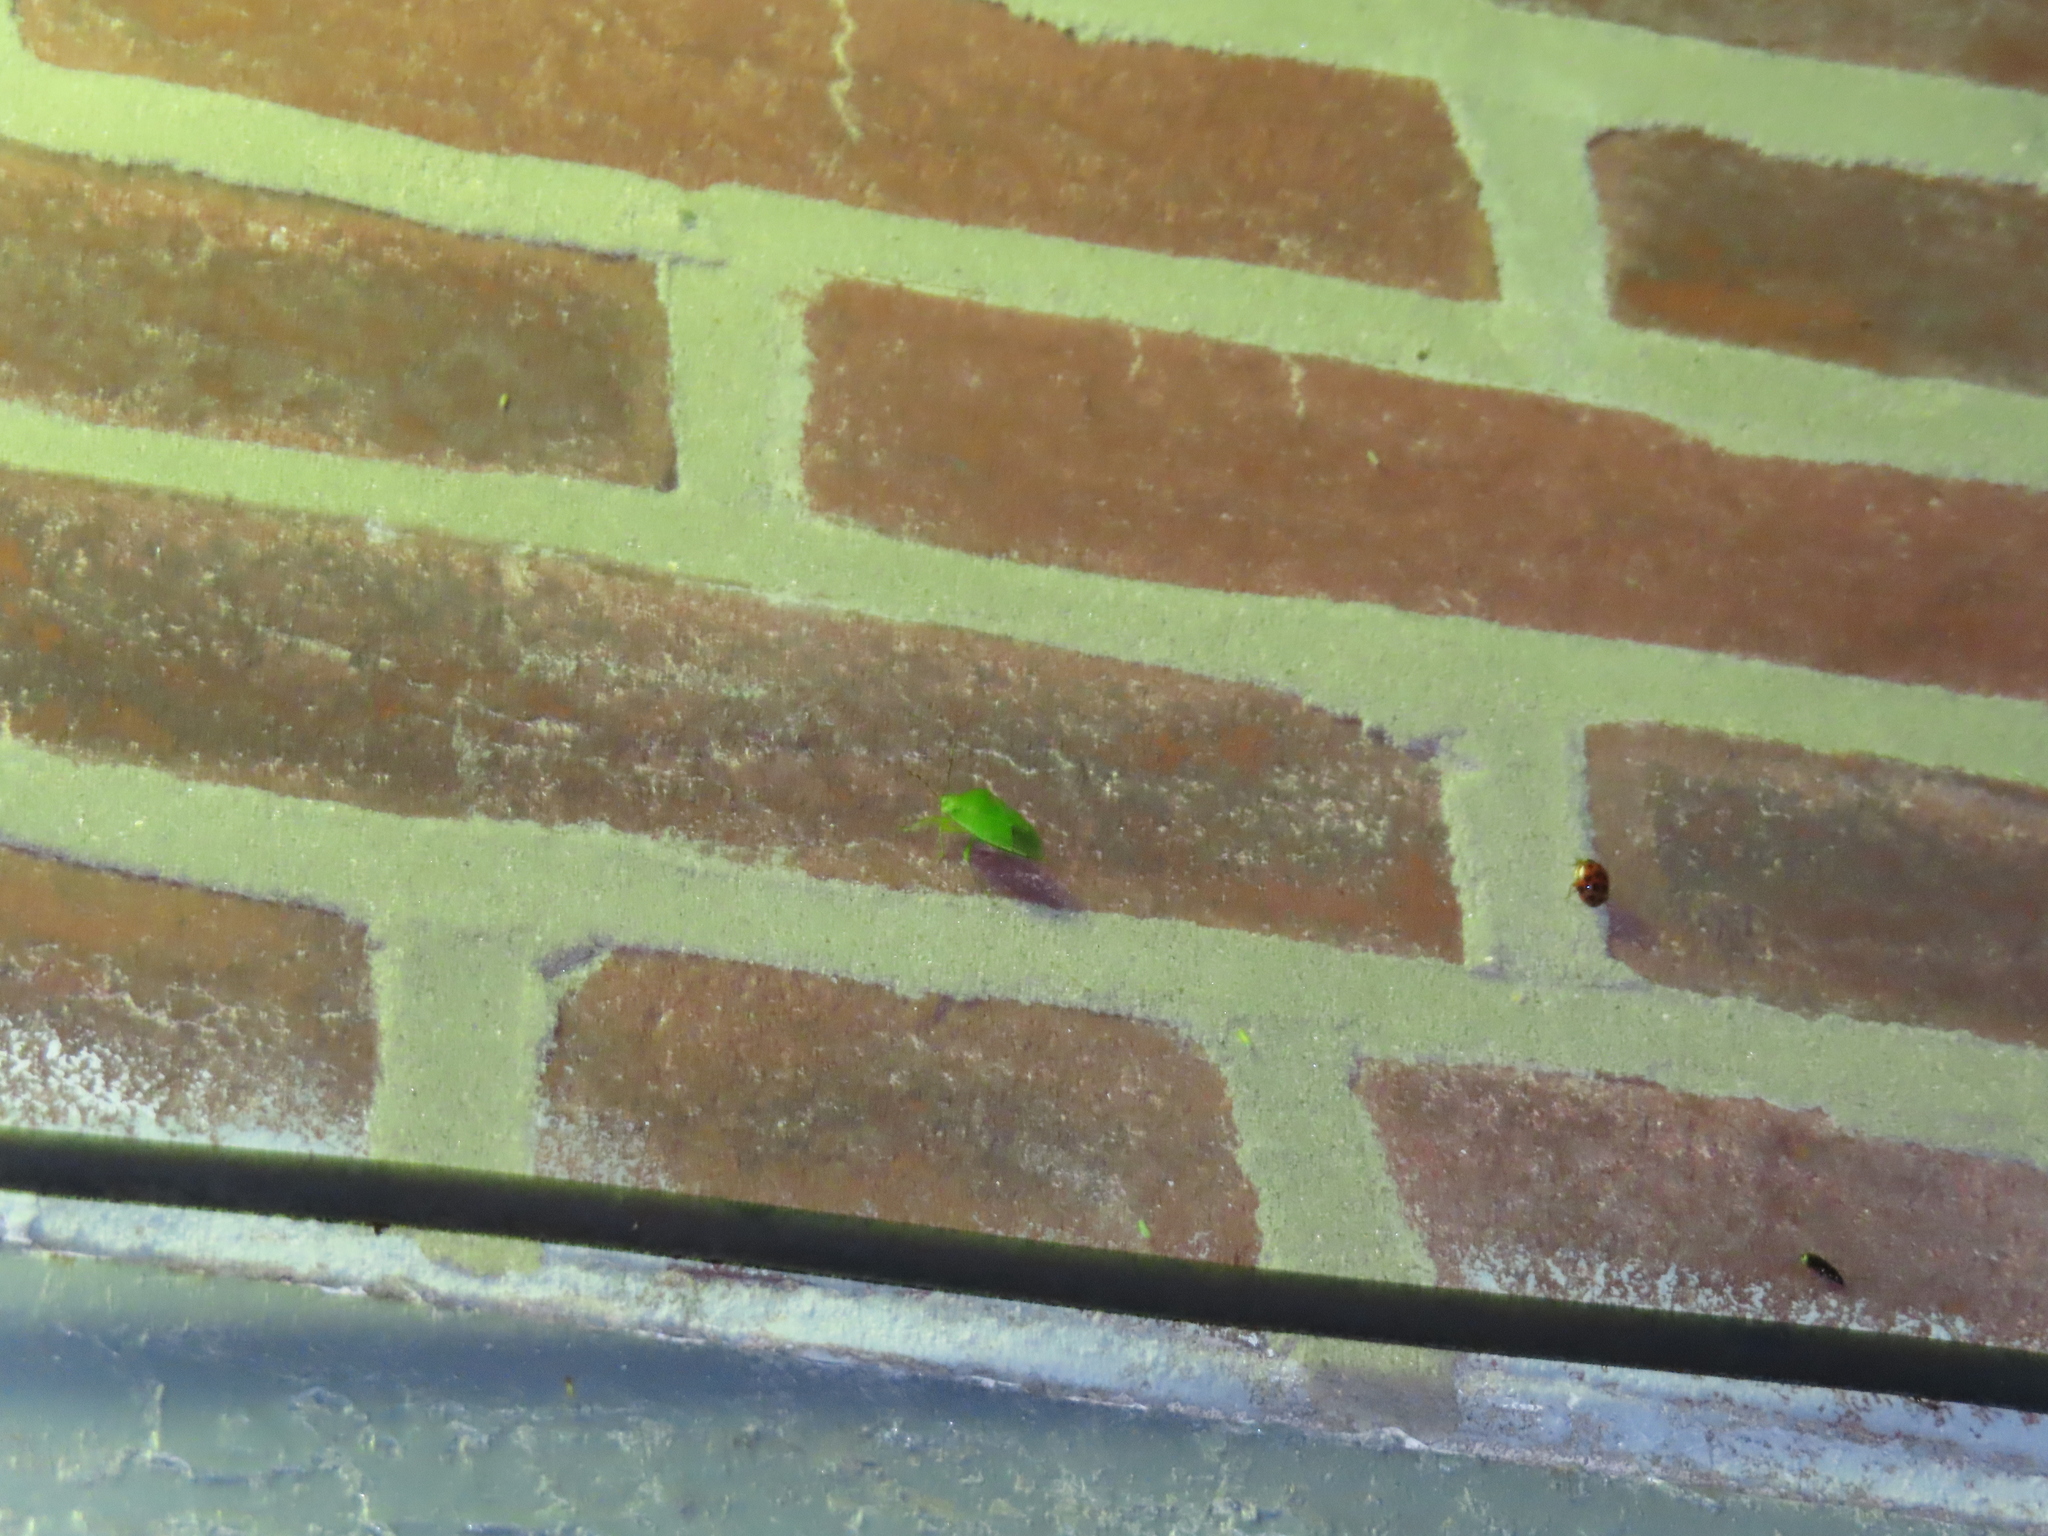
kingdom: Animalia
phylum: Arthropoda
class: Insecta
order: Hemiptera
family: Pentatomidae
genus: Chinavia
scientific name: Chinavia hilaris
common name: Green stink bug
